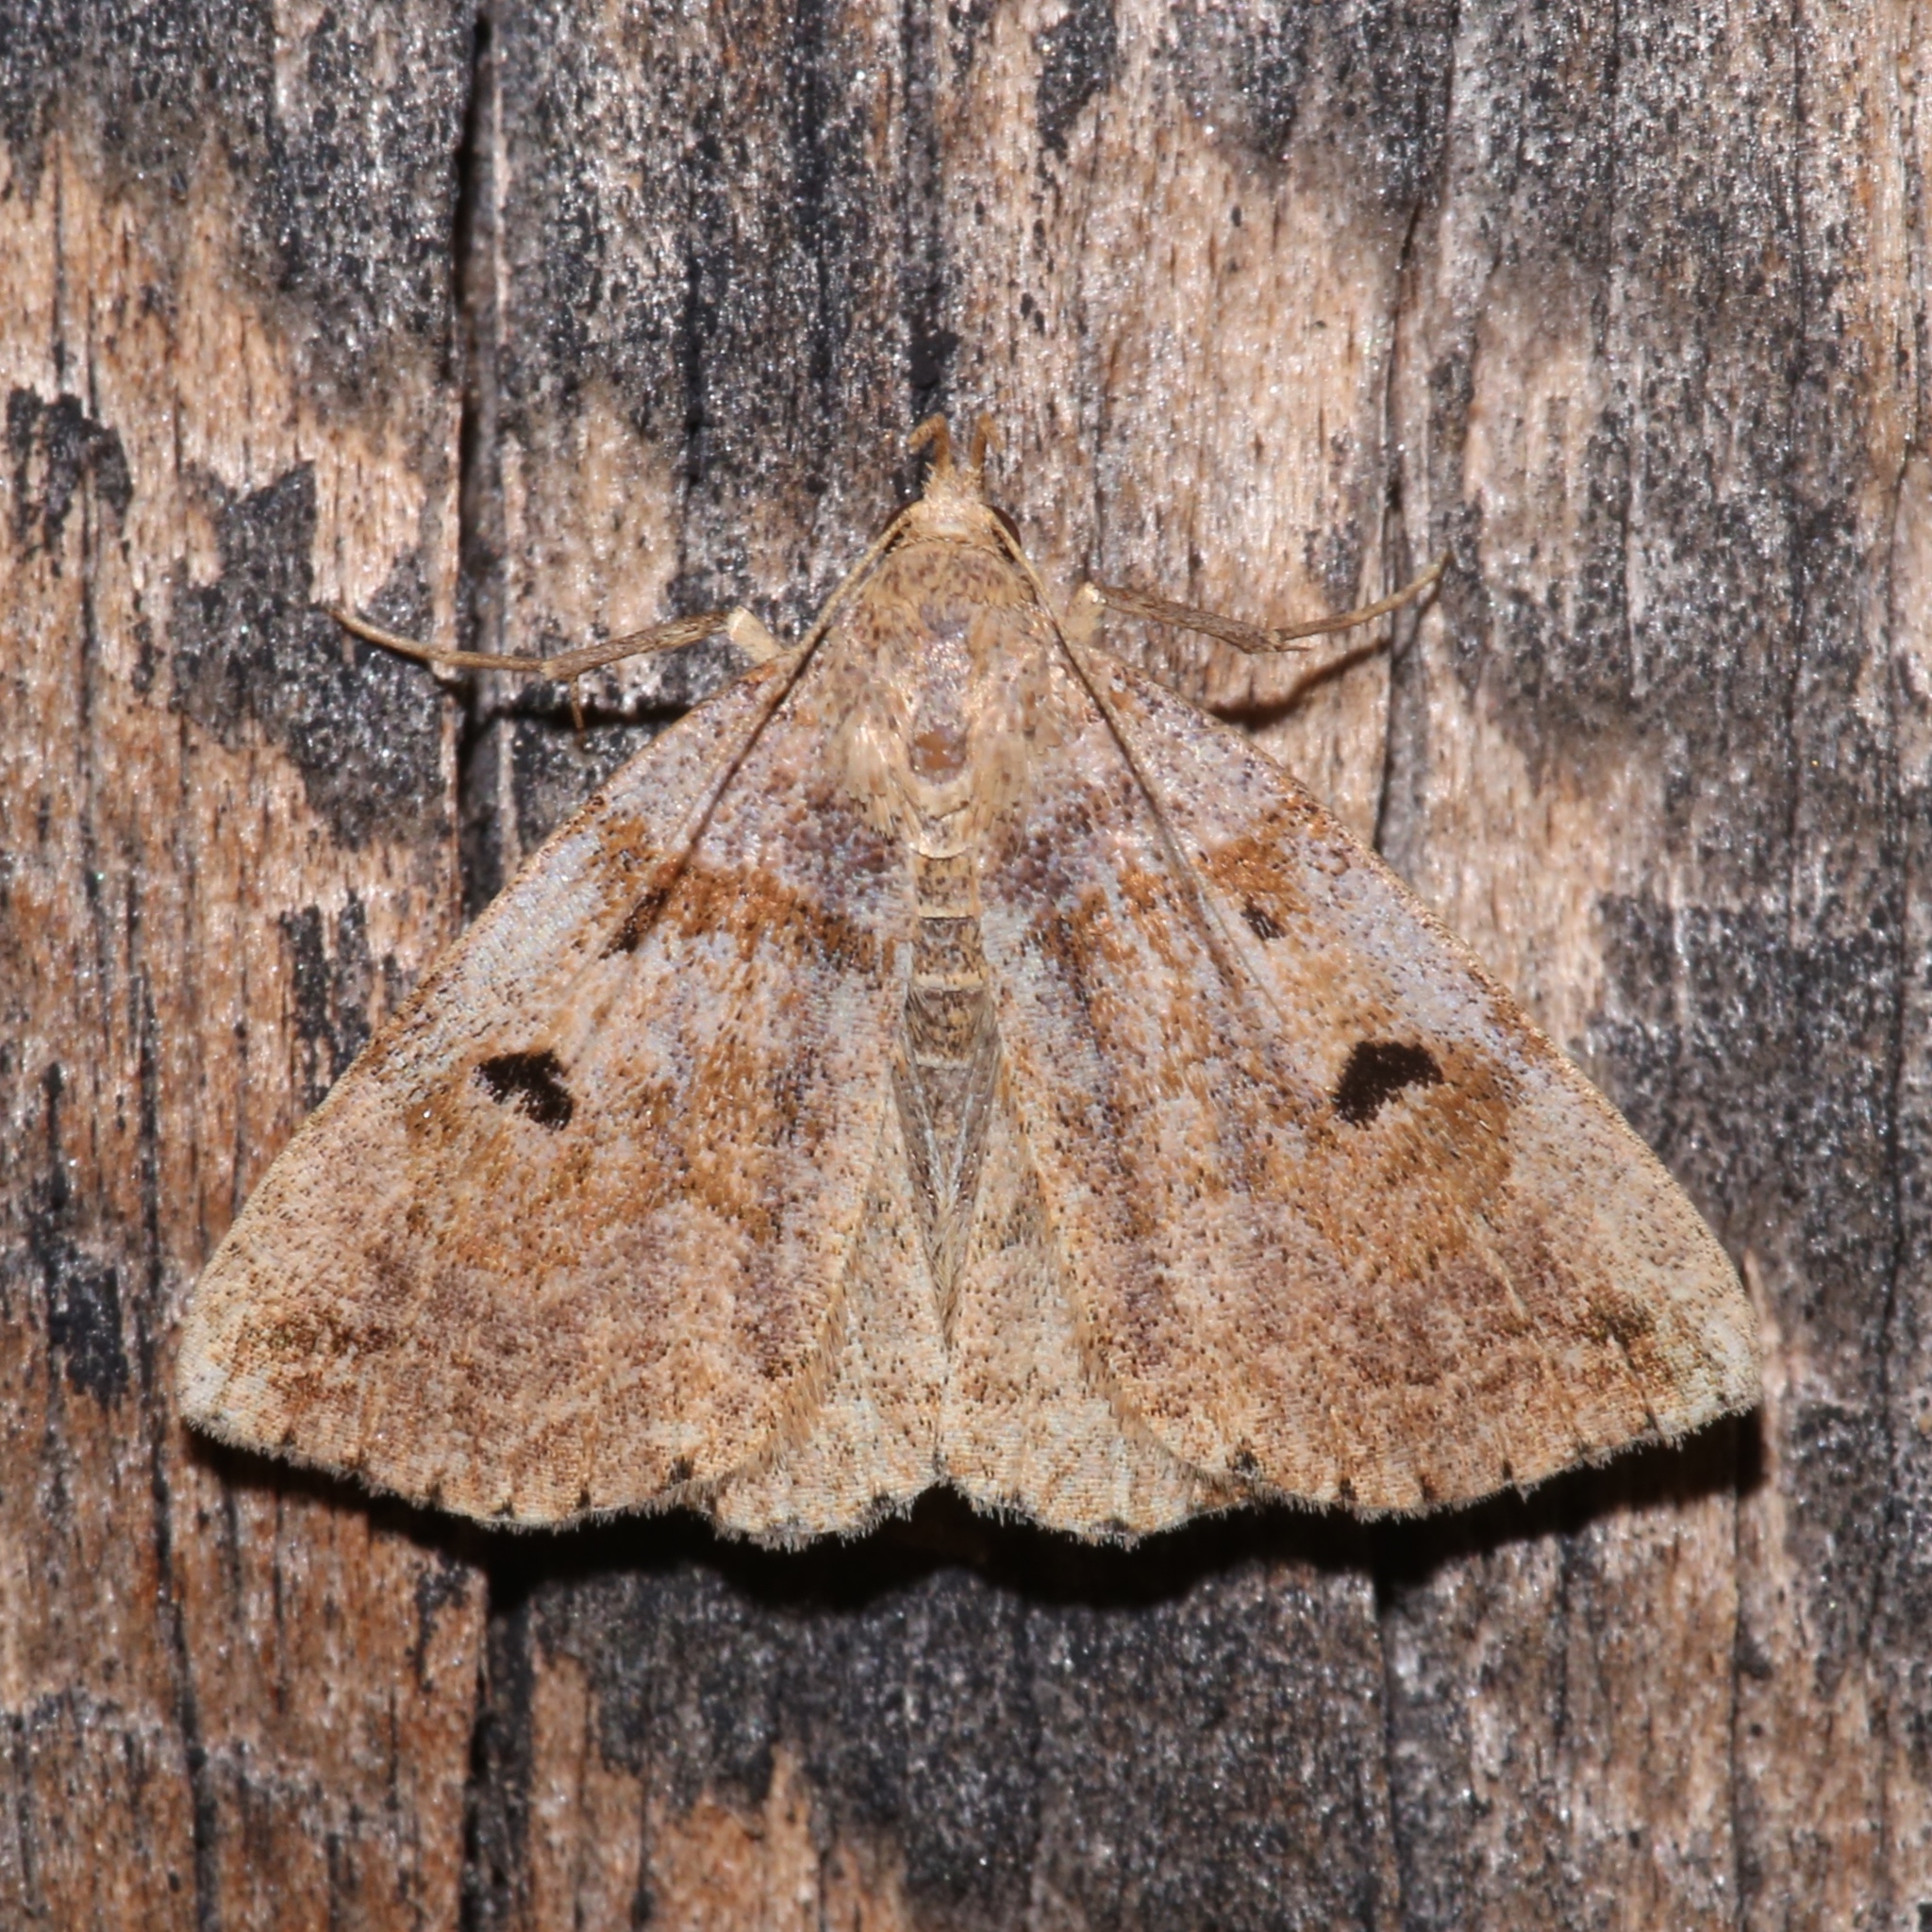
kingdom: Animalia
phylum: Arthropoda
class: Insecta
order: Lepidoptera
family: Erebidae
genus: Zanclognatha
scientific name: Zanclognatha laevigata
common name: Variable fan-foot
